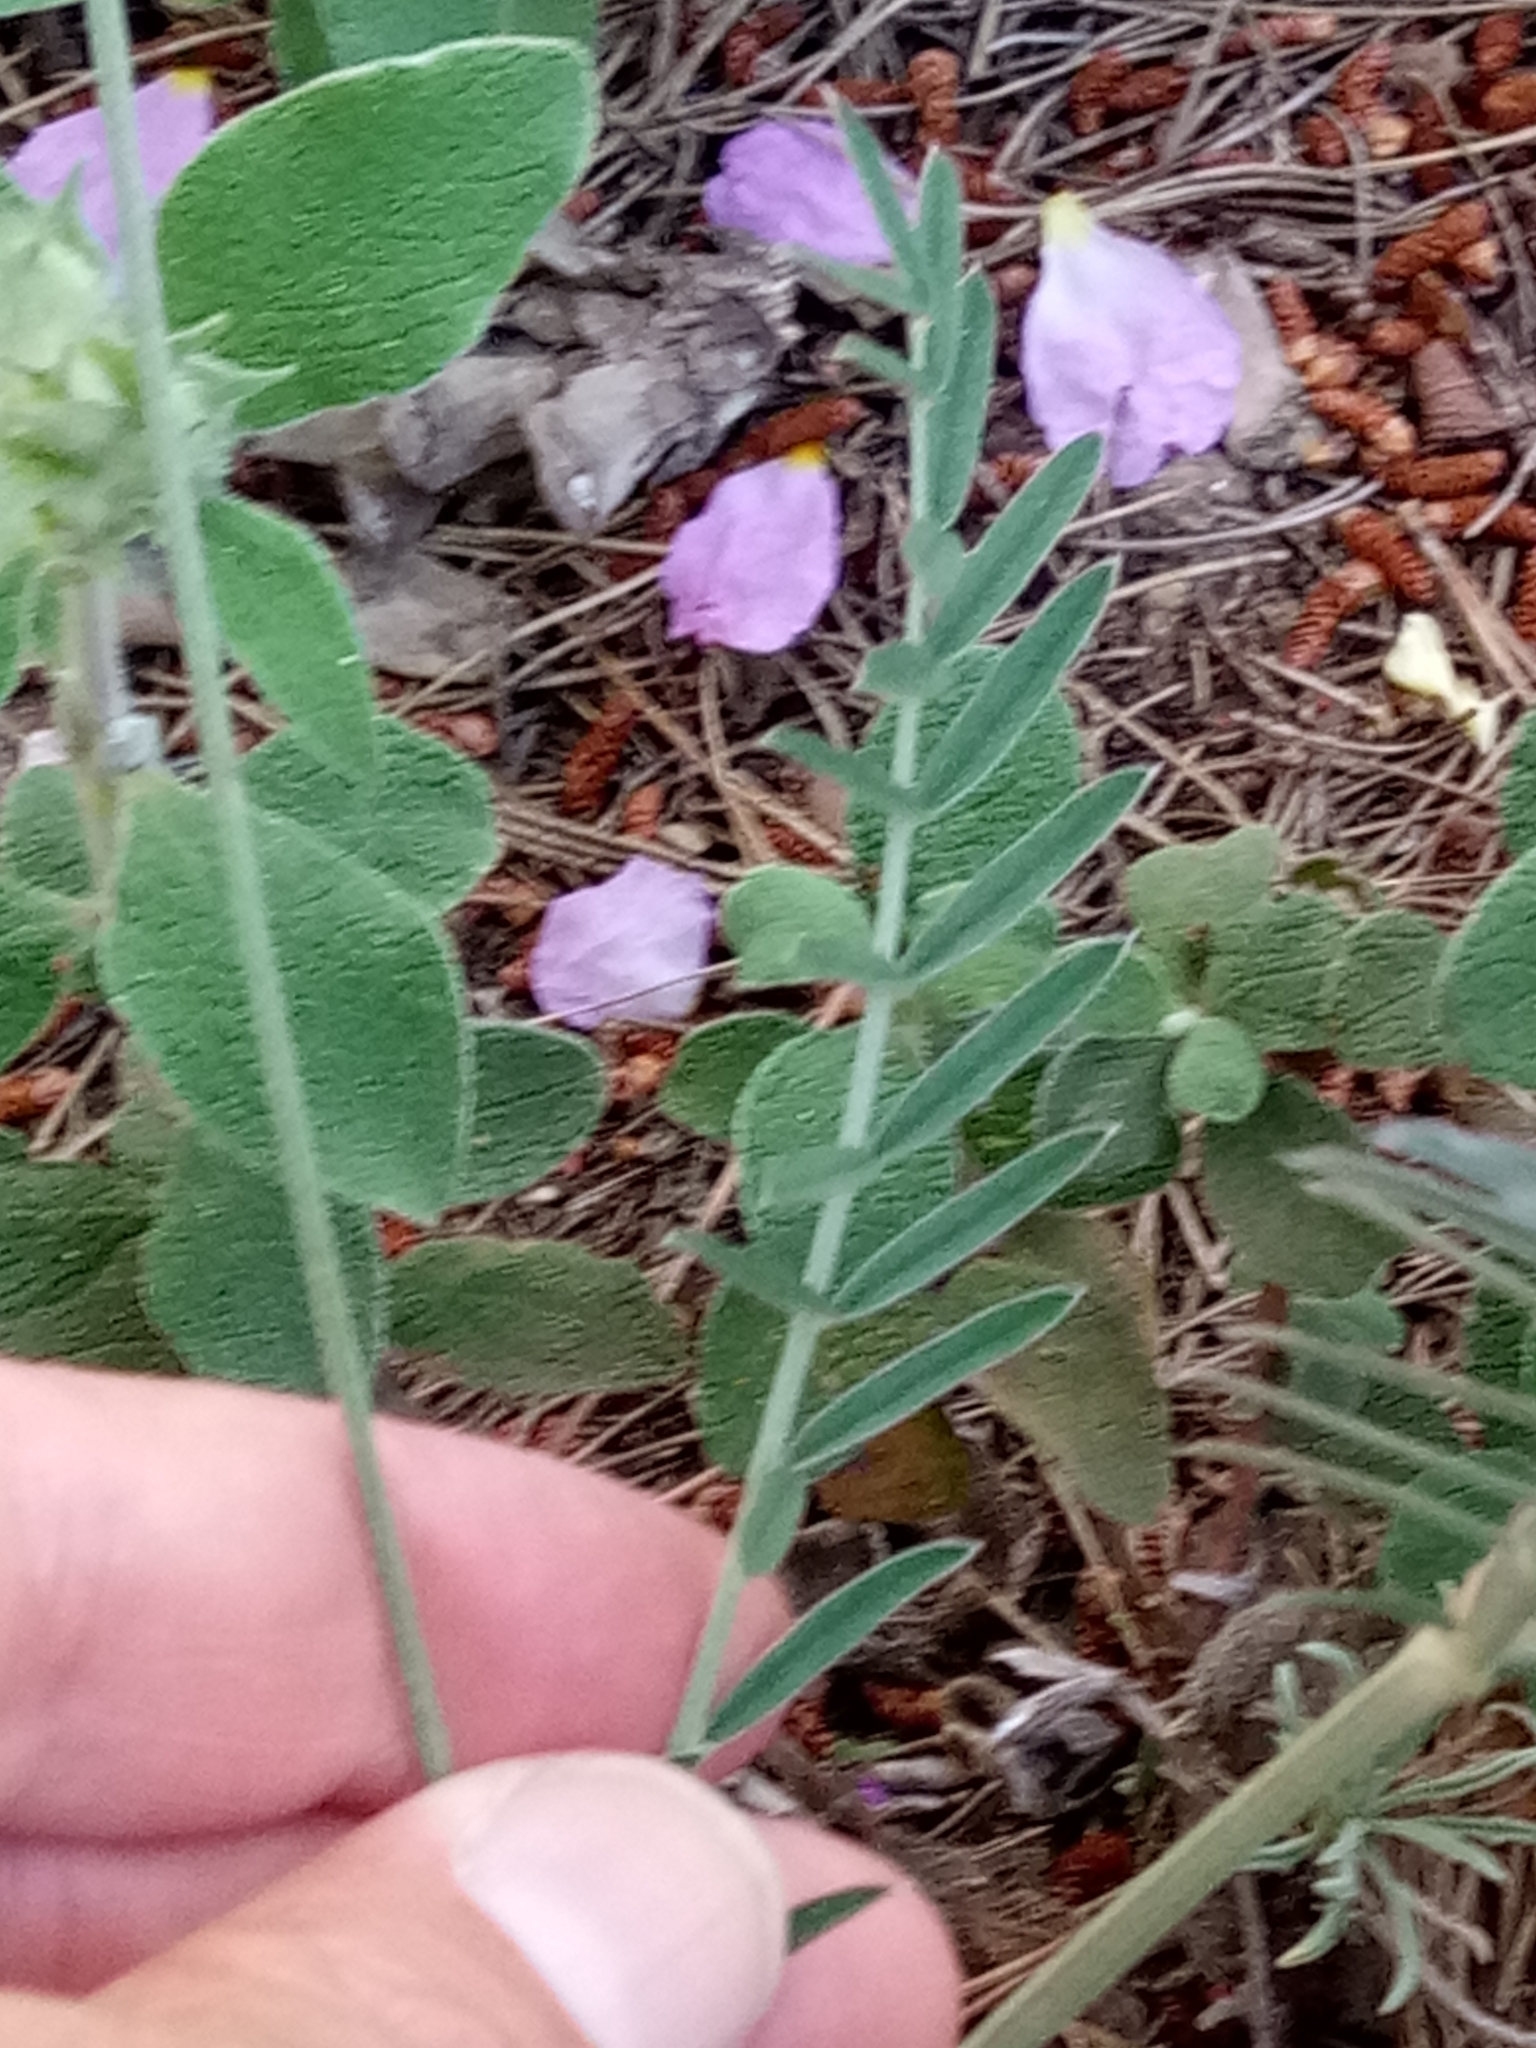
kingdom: Plantae
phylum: Tracheophyta
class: Magnoliopsida
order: Fabales
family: Fabaceae
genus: Onobrychis
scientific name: Onobrychis alba
